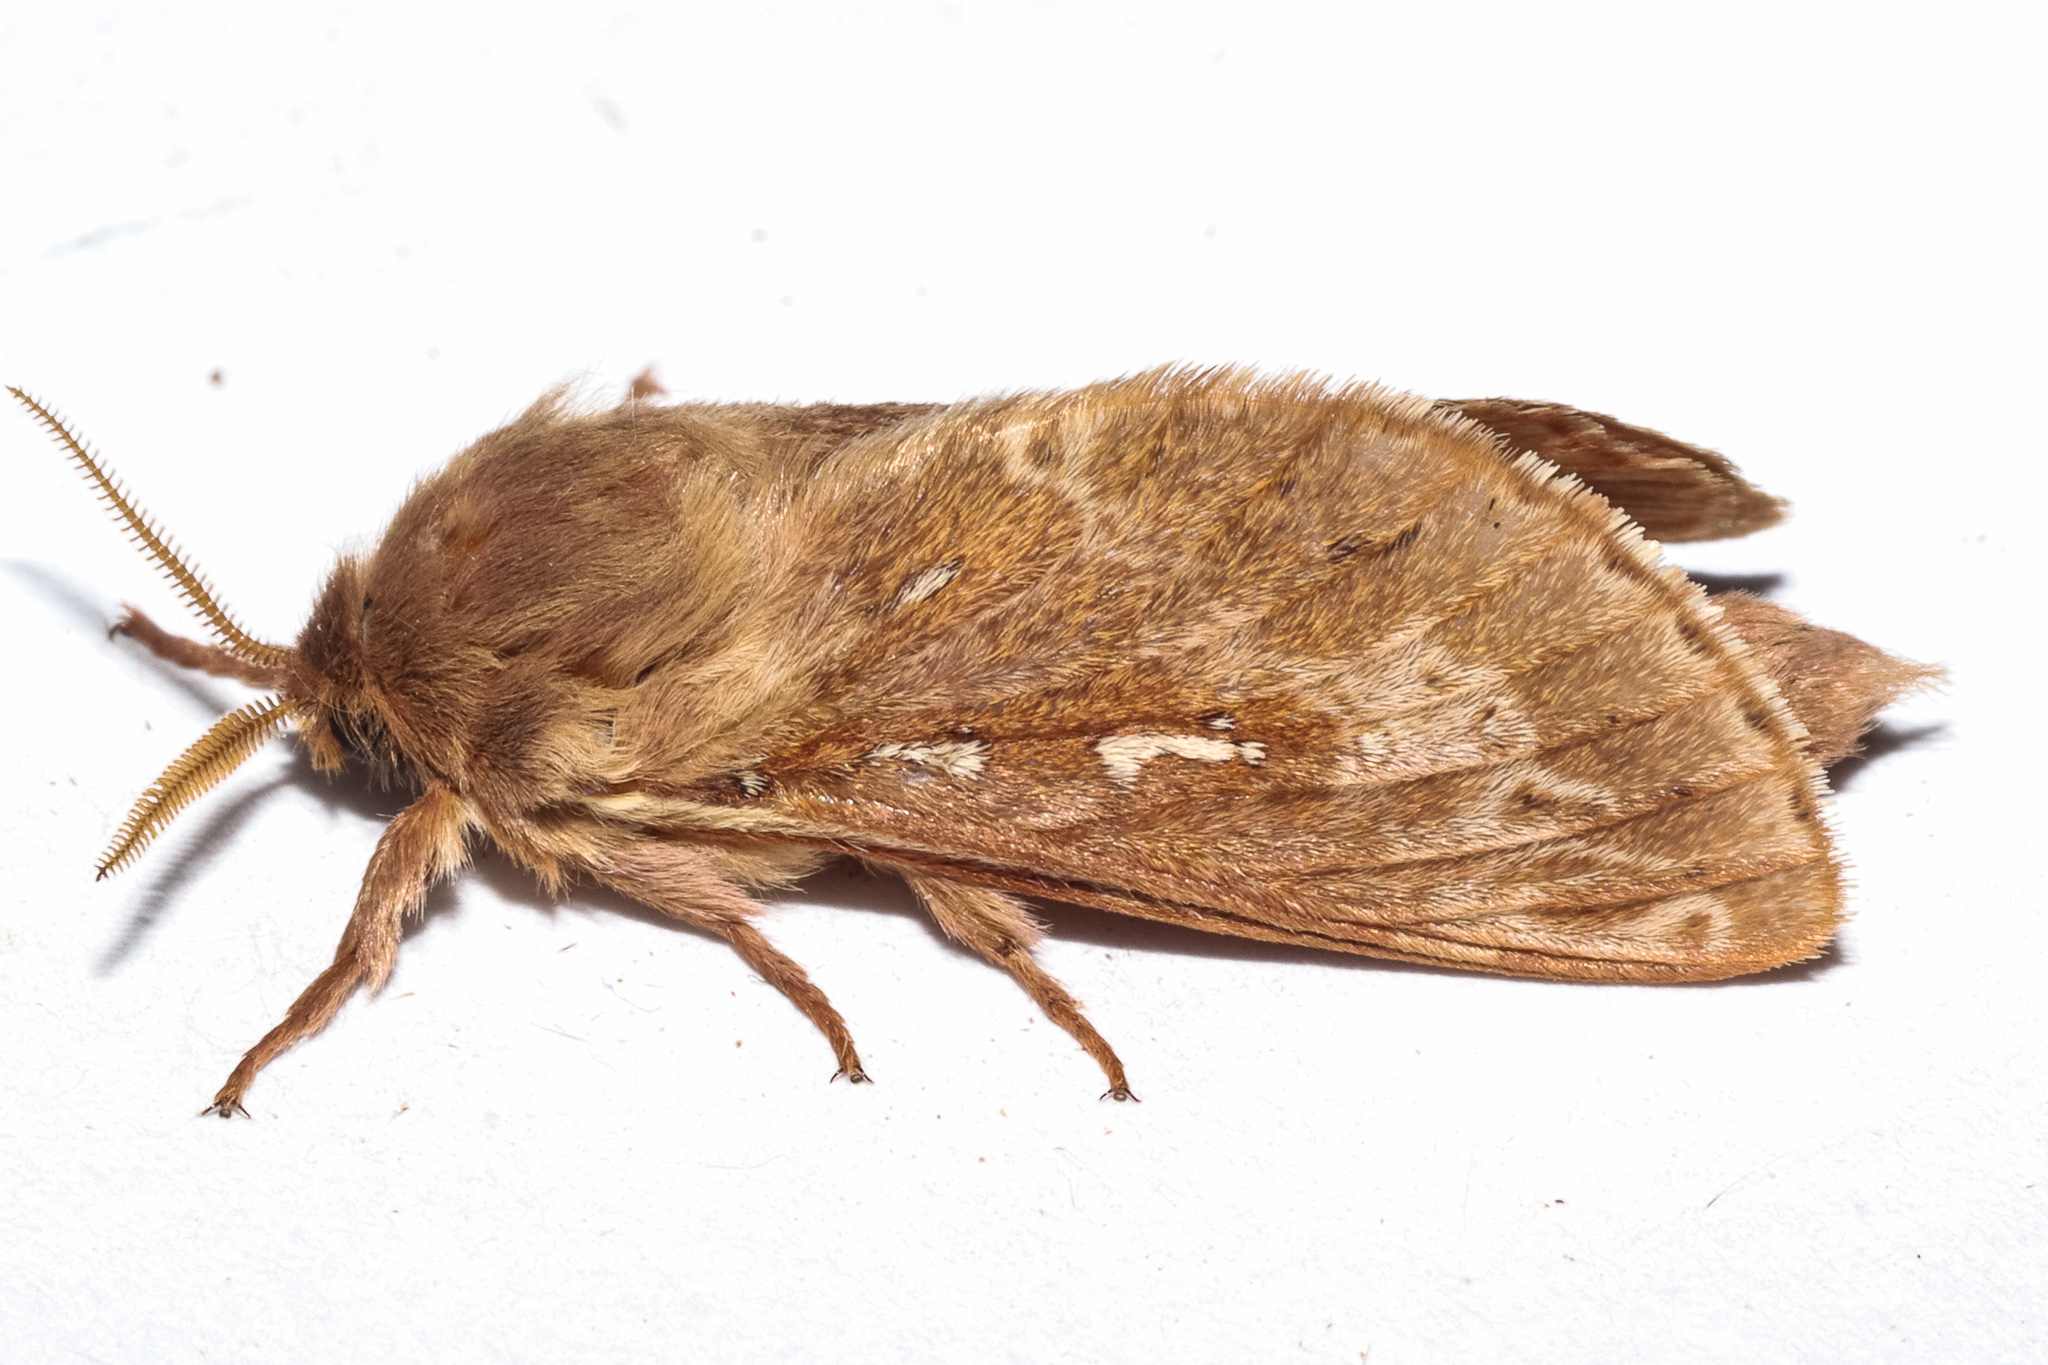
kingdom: Animalia
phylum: Arthropoda
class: Insecta
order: Lepidoptera
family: Hepialidae
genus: Wiseana
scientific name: Wiseana copularis
